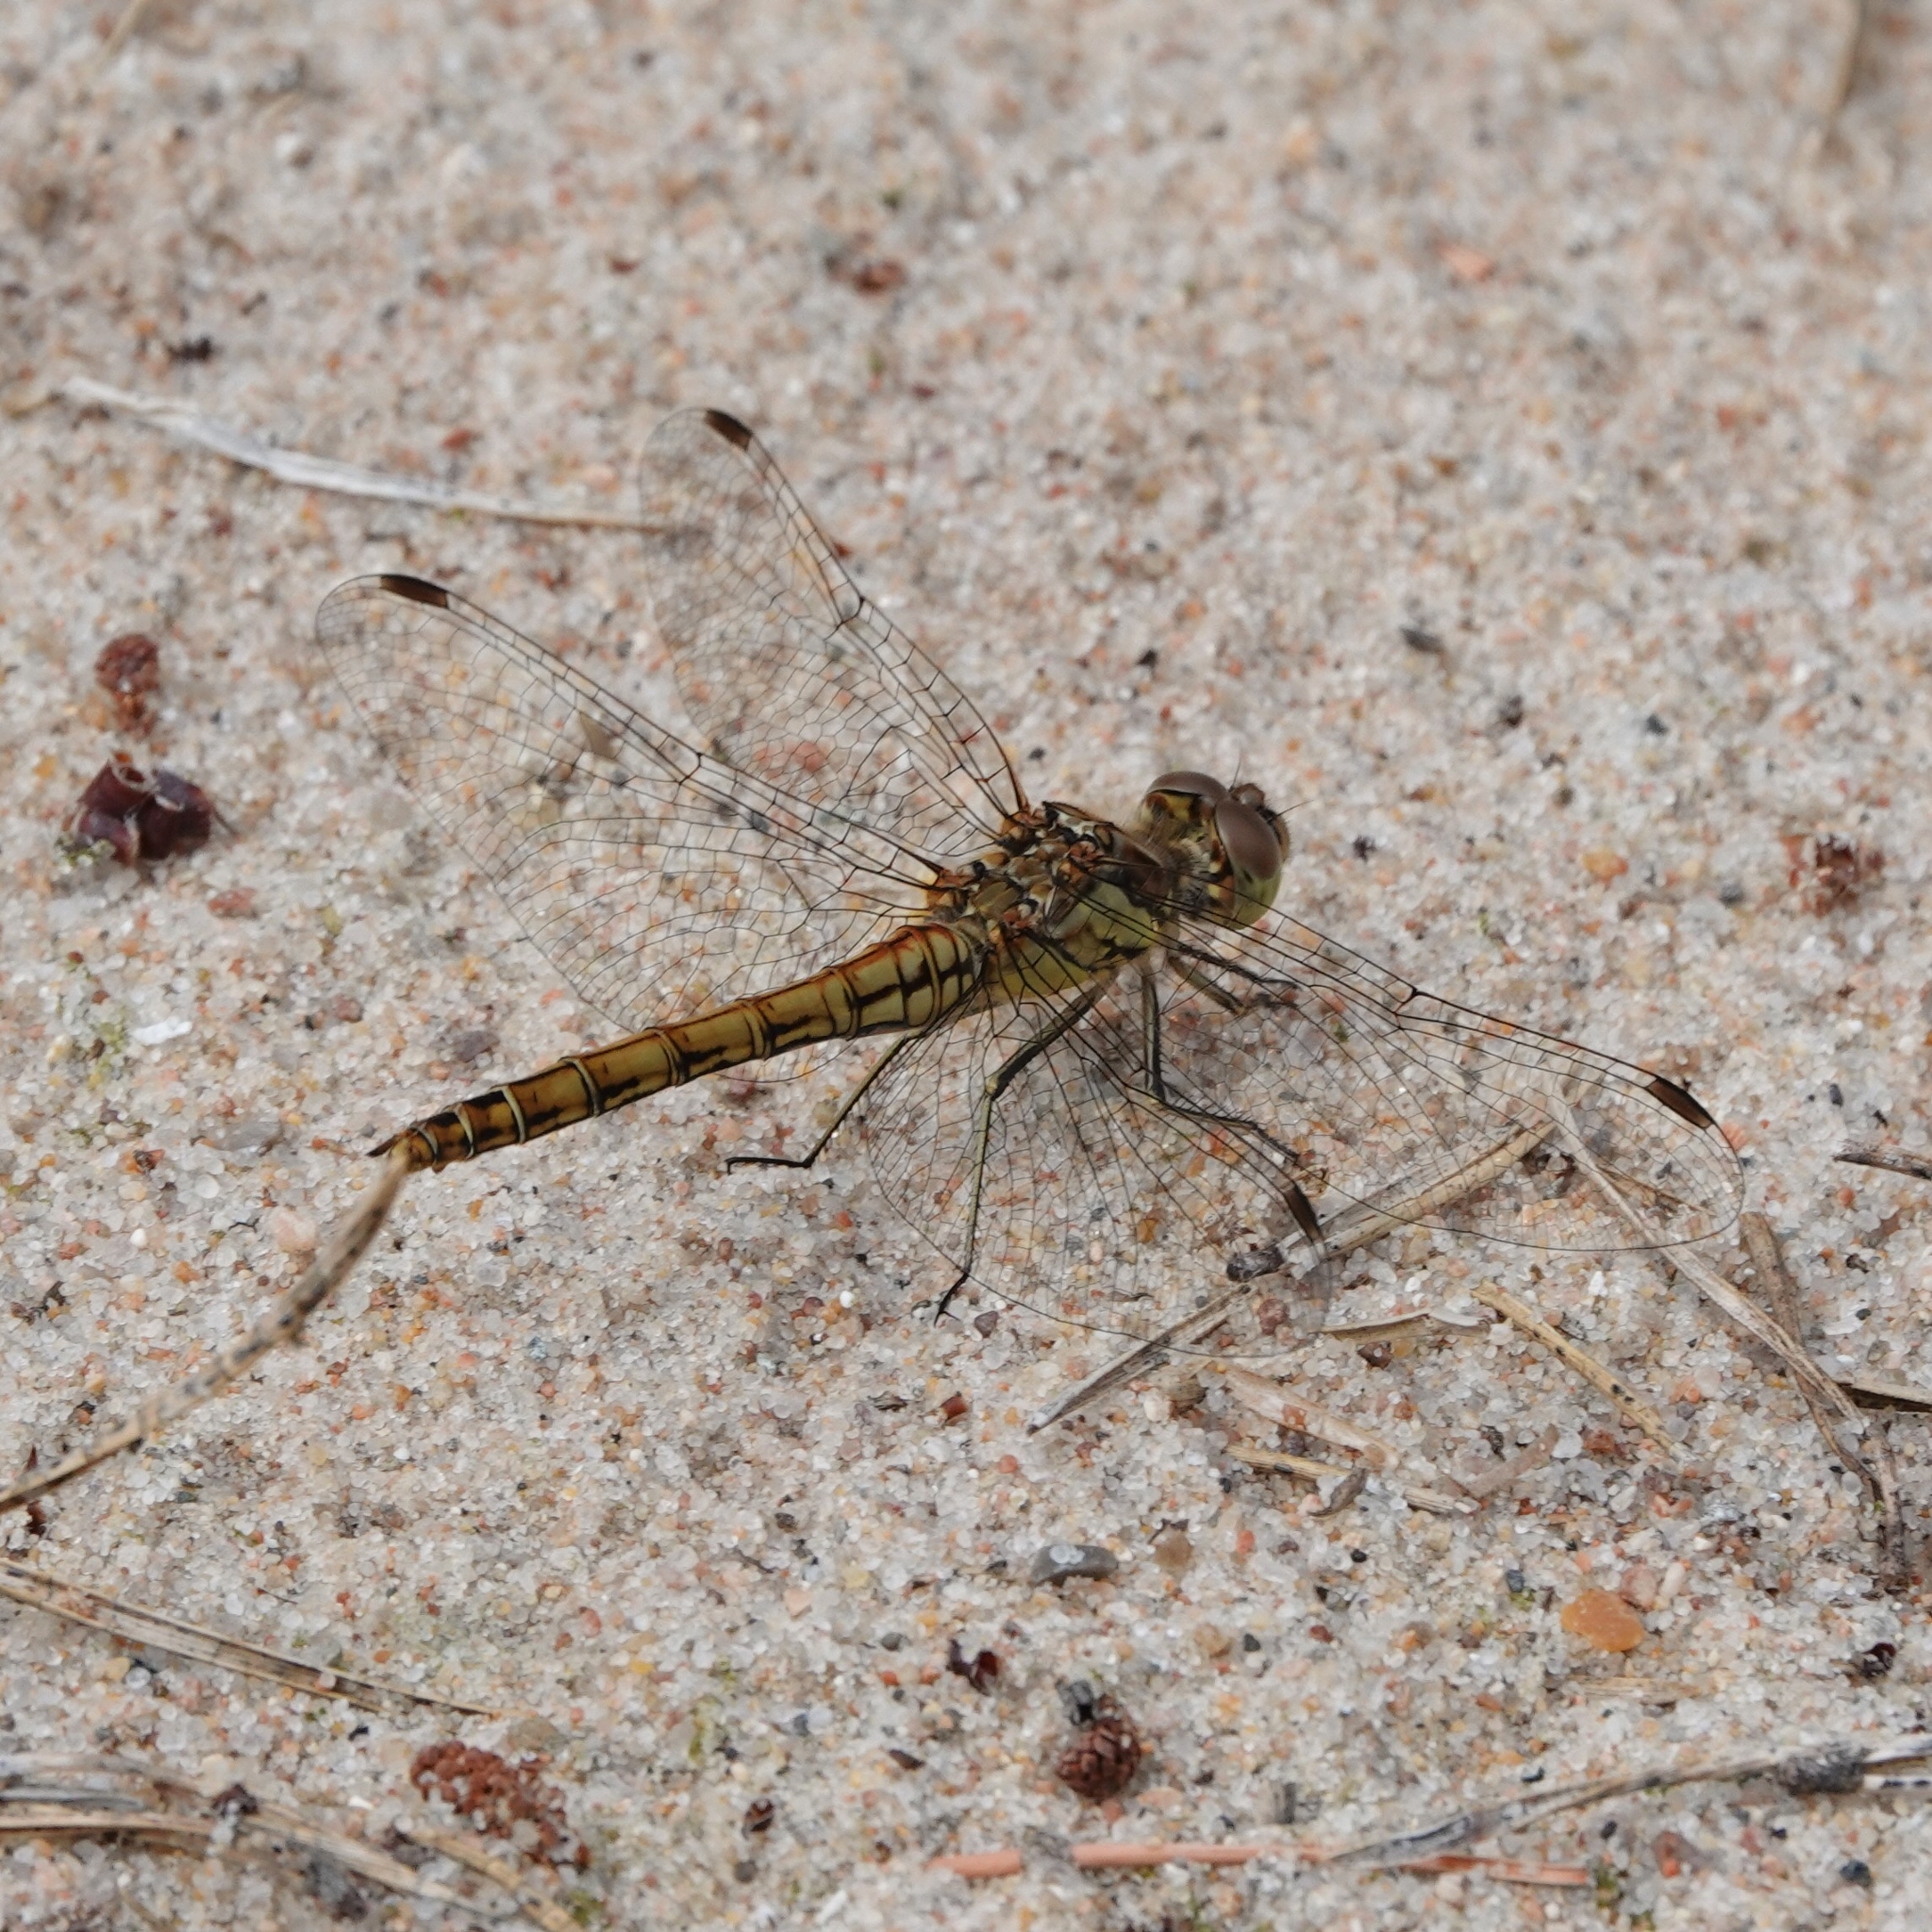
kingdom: Animalia
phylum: Arthropoda
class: Insecta
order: Odonata
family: Libellulidae
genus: Sympetrum
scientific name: Sympetrum vulgatum
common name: Vagrant darter
